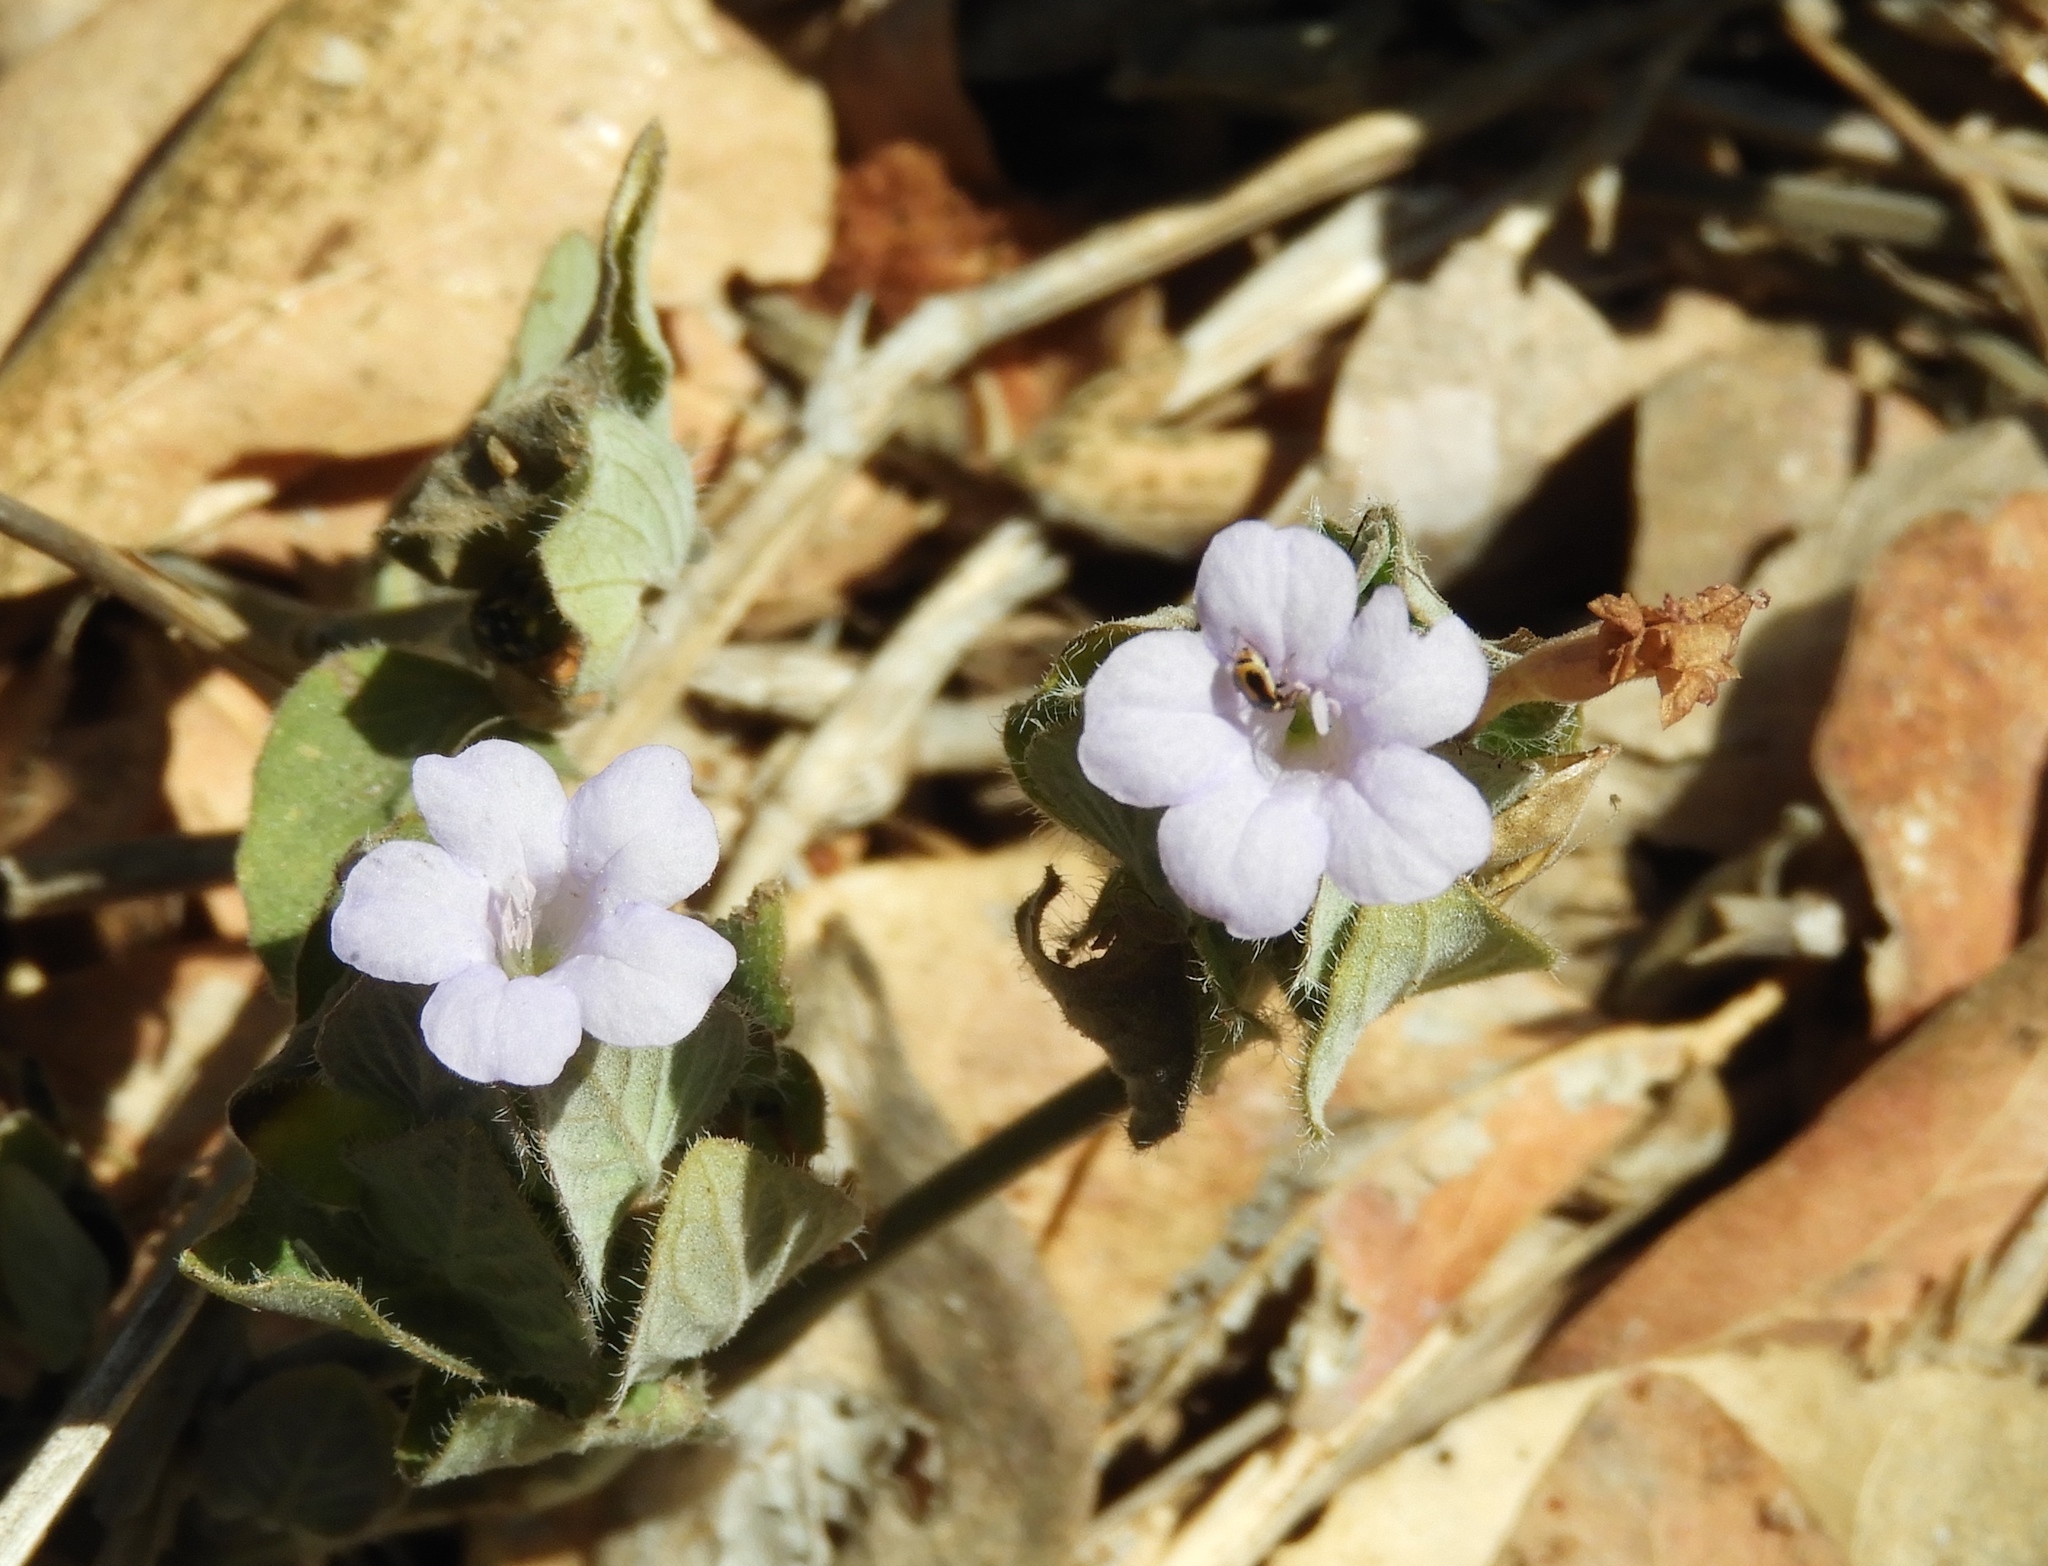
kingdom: Plantae
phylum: Tracheophyta
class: Magnoliopsida
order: Lamiales
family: Acanthaceae
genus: Ruellia
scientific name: Ruellia blechum
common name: Browne's blechum
